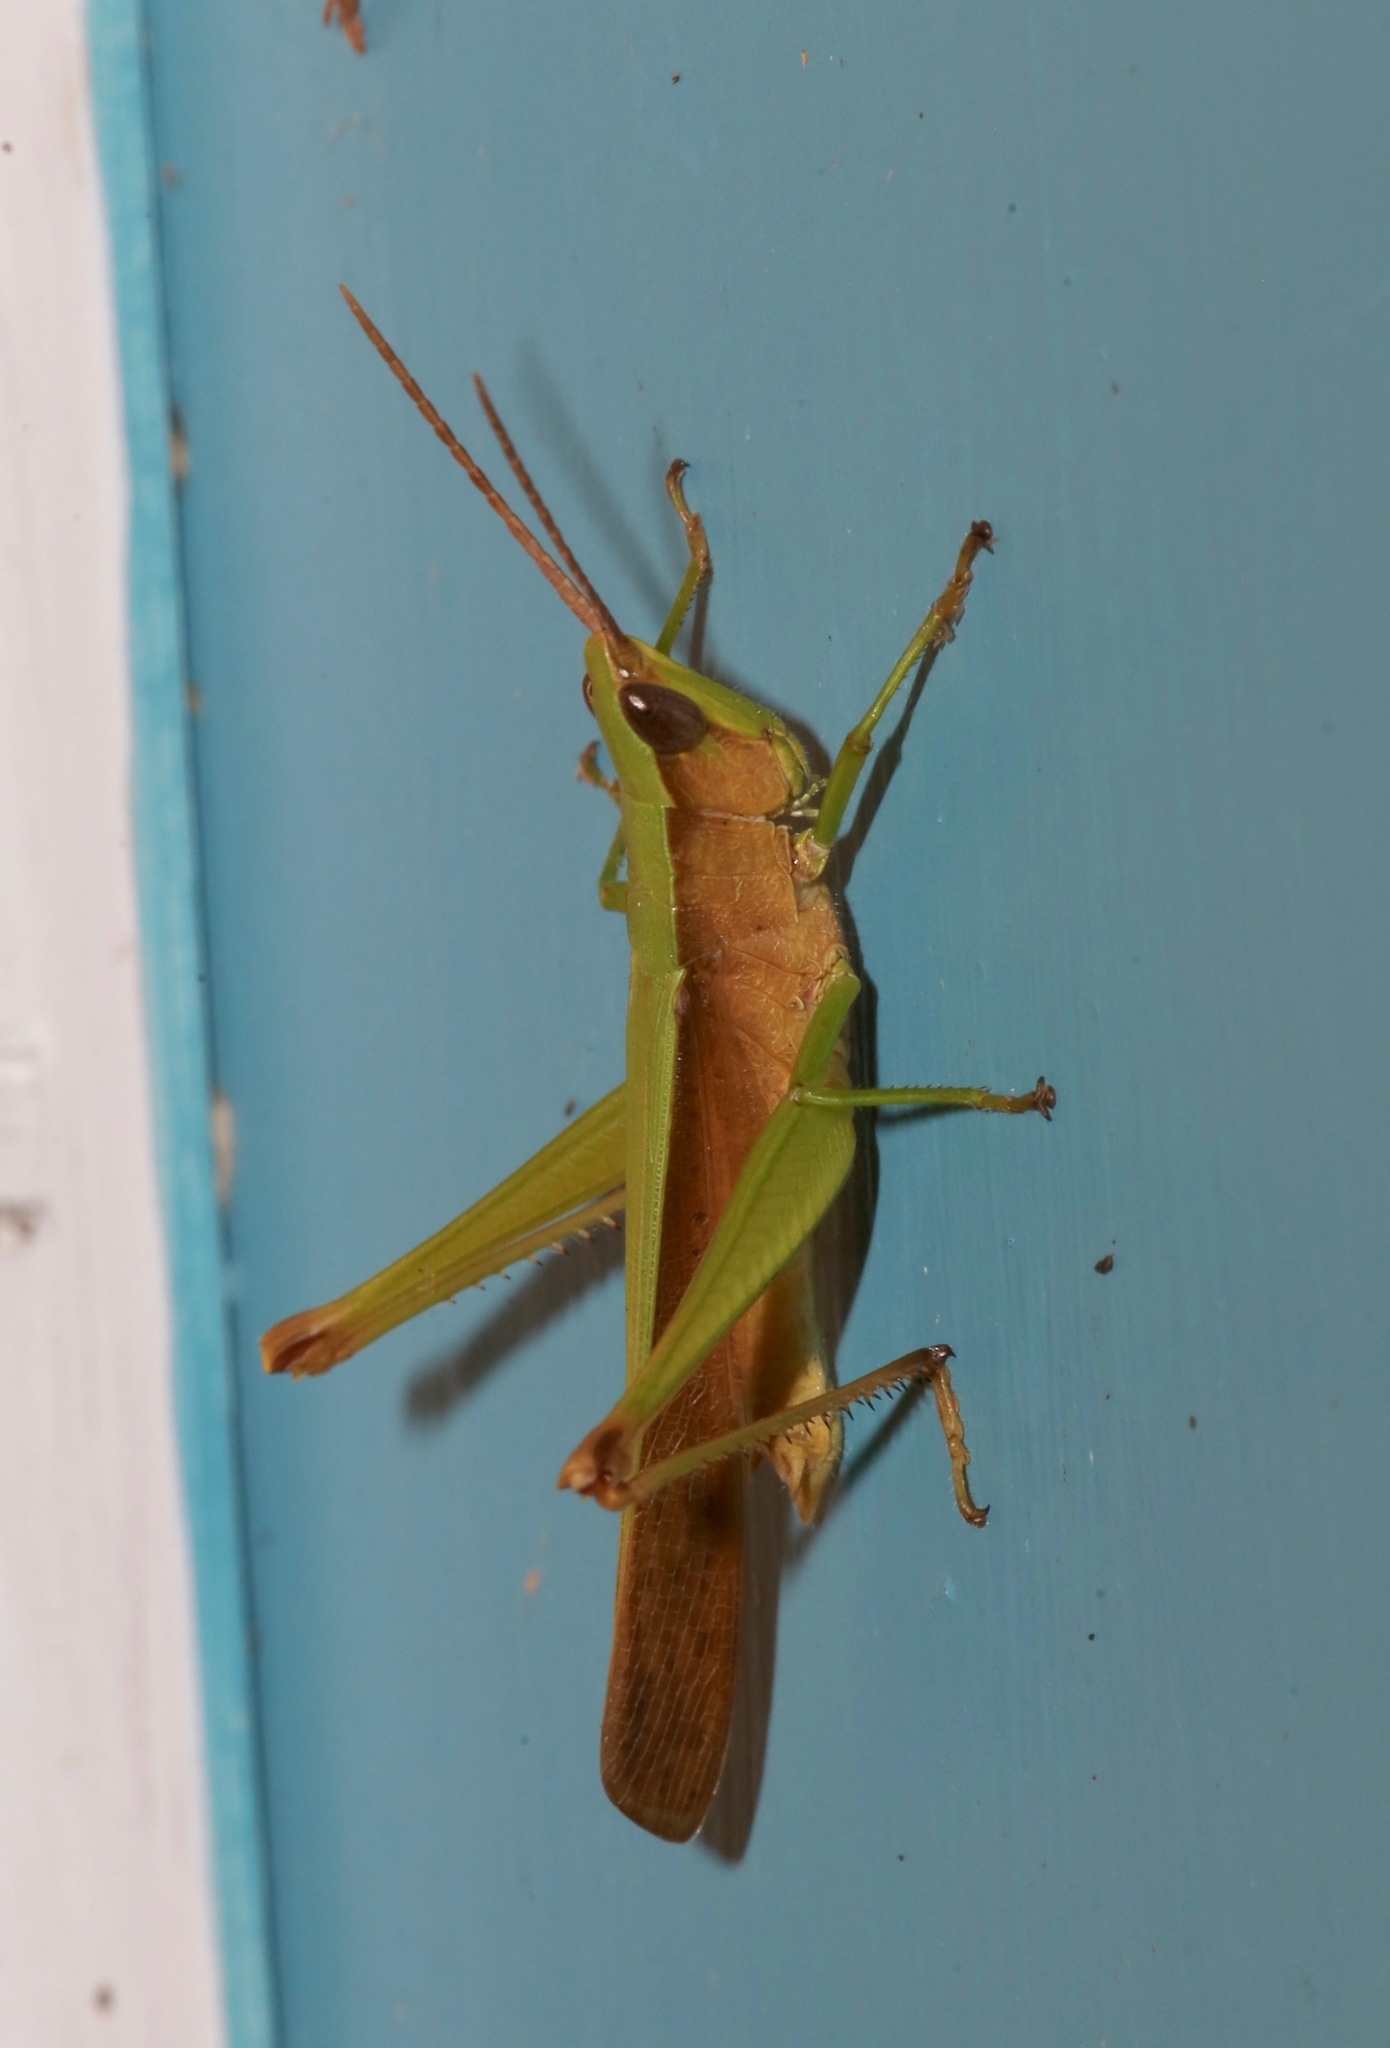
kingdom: Animalia
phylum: Arthropoda
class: Insecta
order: Orthoptera
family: Acrididae
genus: Metaleptea
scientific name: Metaleptea brevicornis
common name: Clipped-wing grasshopper
